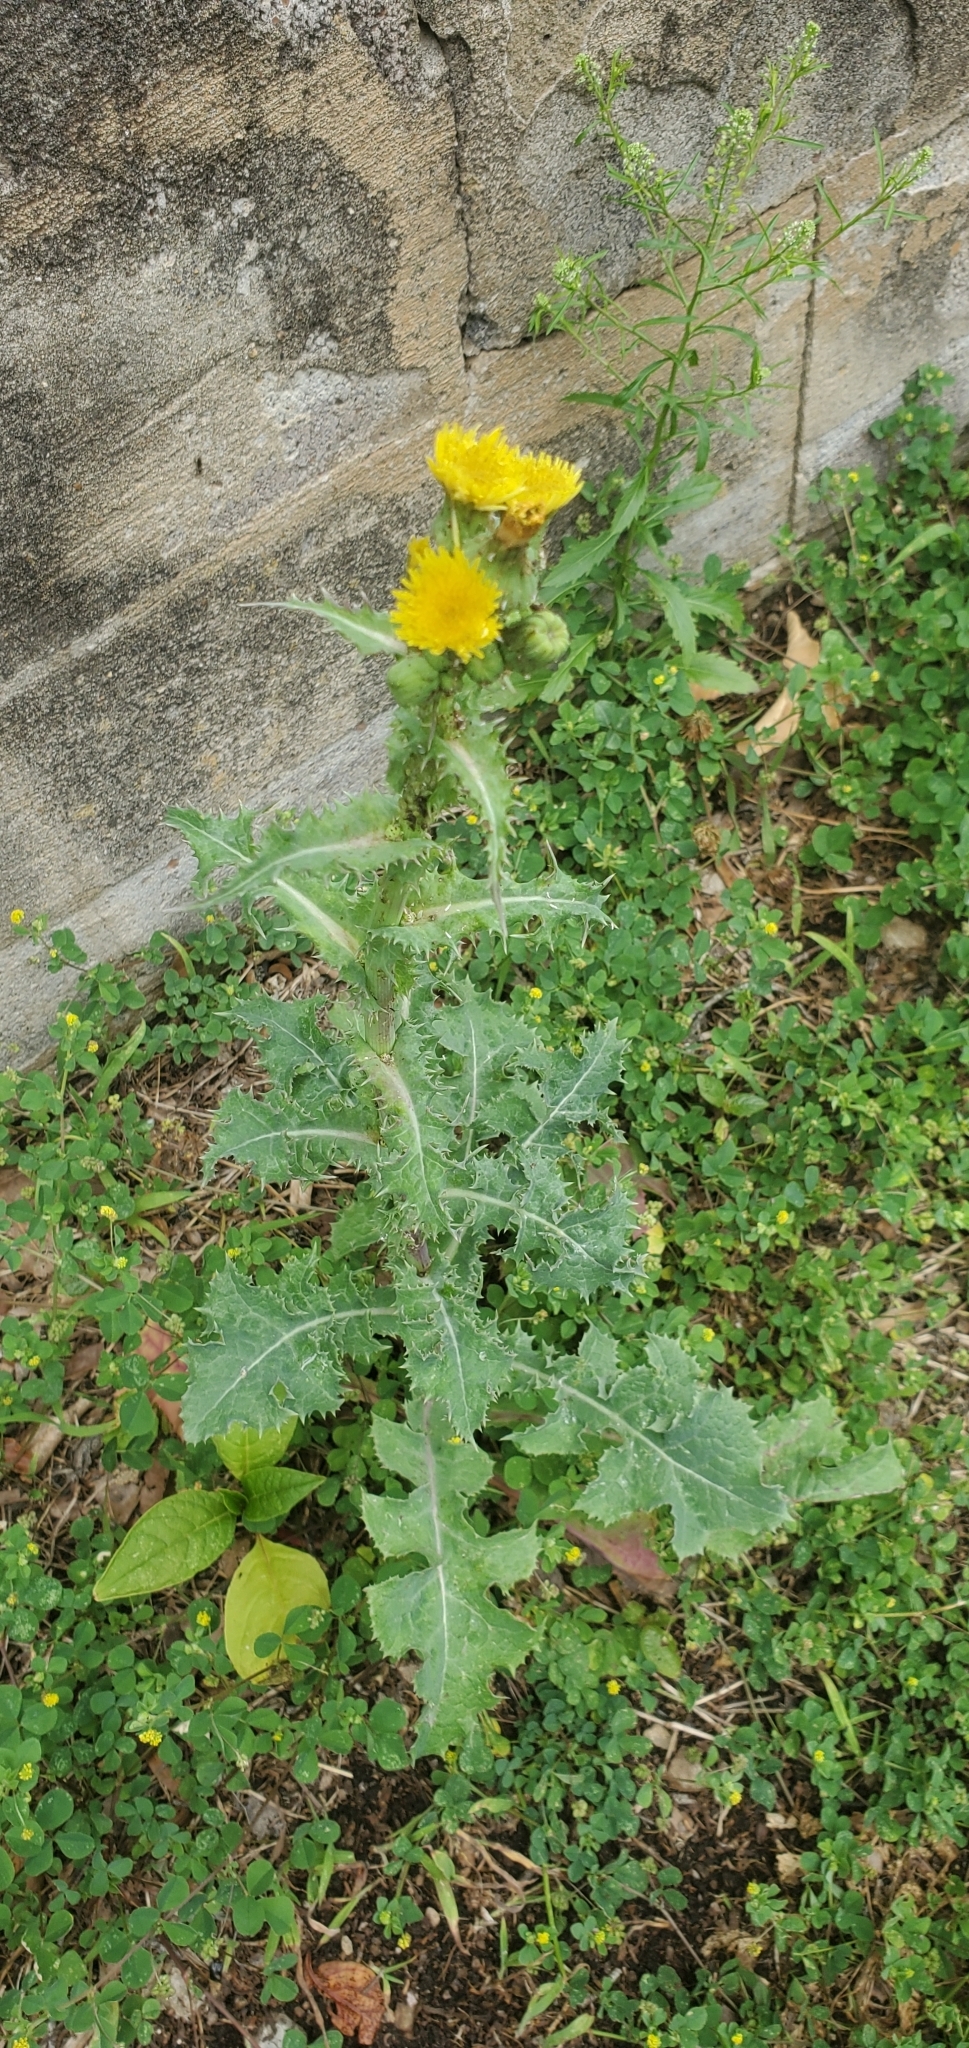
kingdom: Plantae
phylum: Tracheophyta
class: Magnoliopsida
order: Asterales
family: Asteraceae
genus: Sonchus
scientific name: Sonchus asper
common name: Prickly sow-thistle
